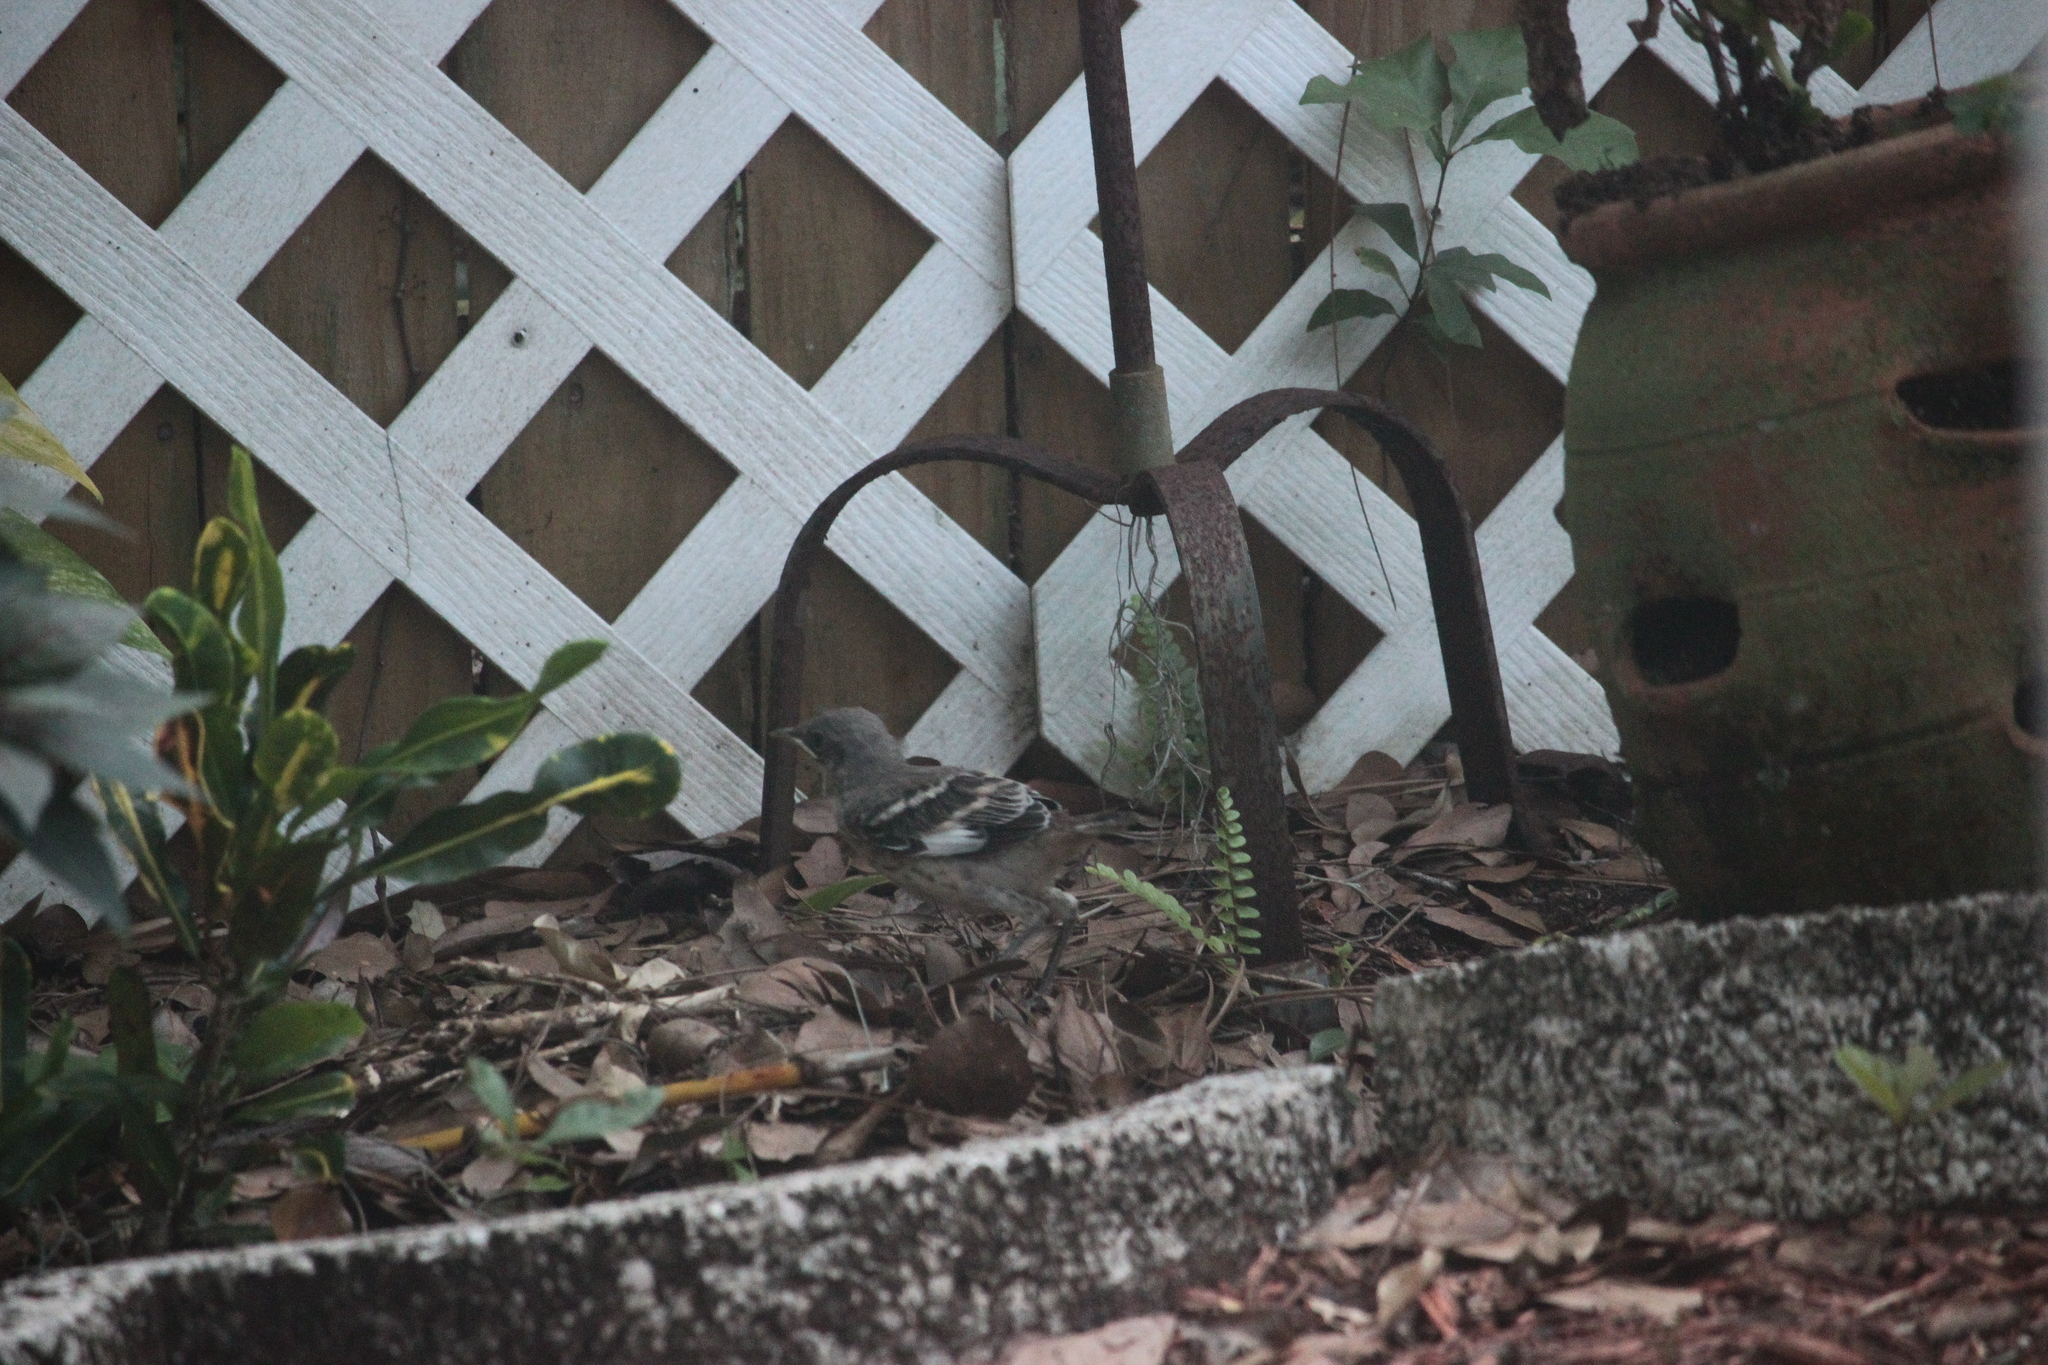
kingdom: Animalia
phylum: Chordata
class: Aves
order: Passeriformes
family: Mimidae
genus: Mimus
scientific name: Mimus polyglottos
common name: Northern mockingbird
